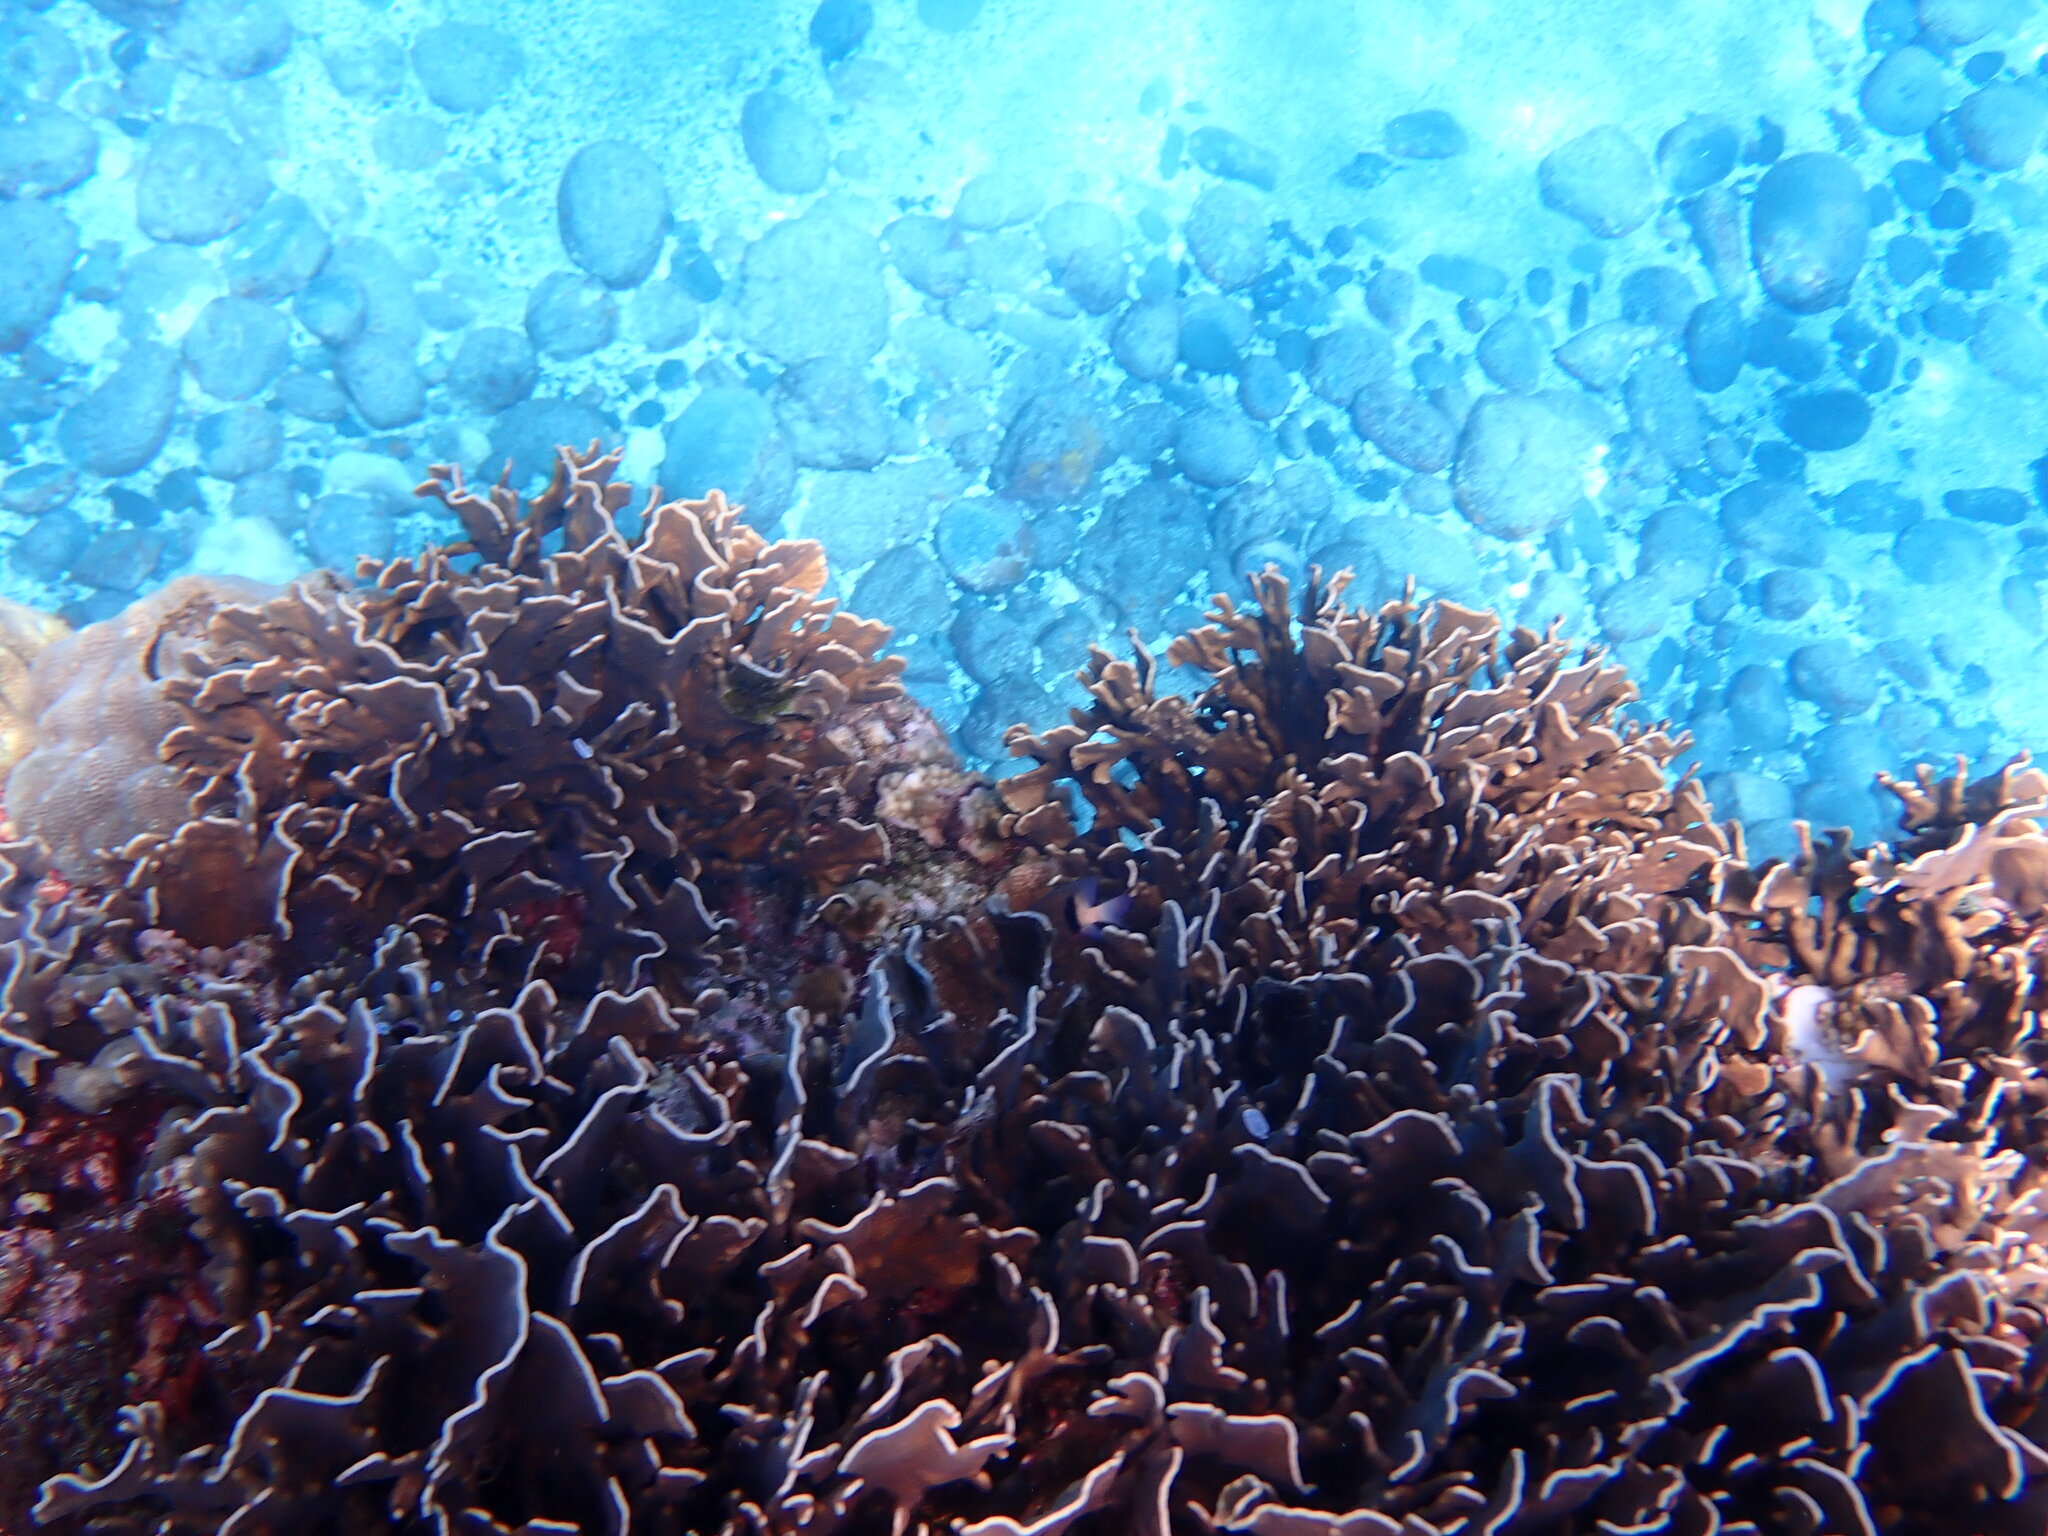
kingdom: Animalia
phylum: Cnidaria
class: Anthozoa
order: Scleralcyonacea
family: Helioporidae
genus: Heliopora
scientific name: Heliopora coerulea
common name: Blue coral
